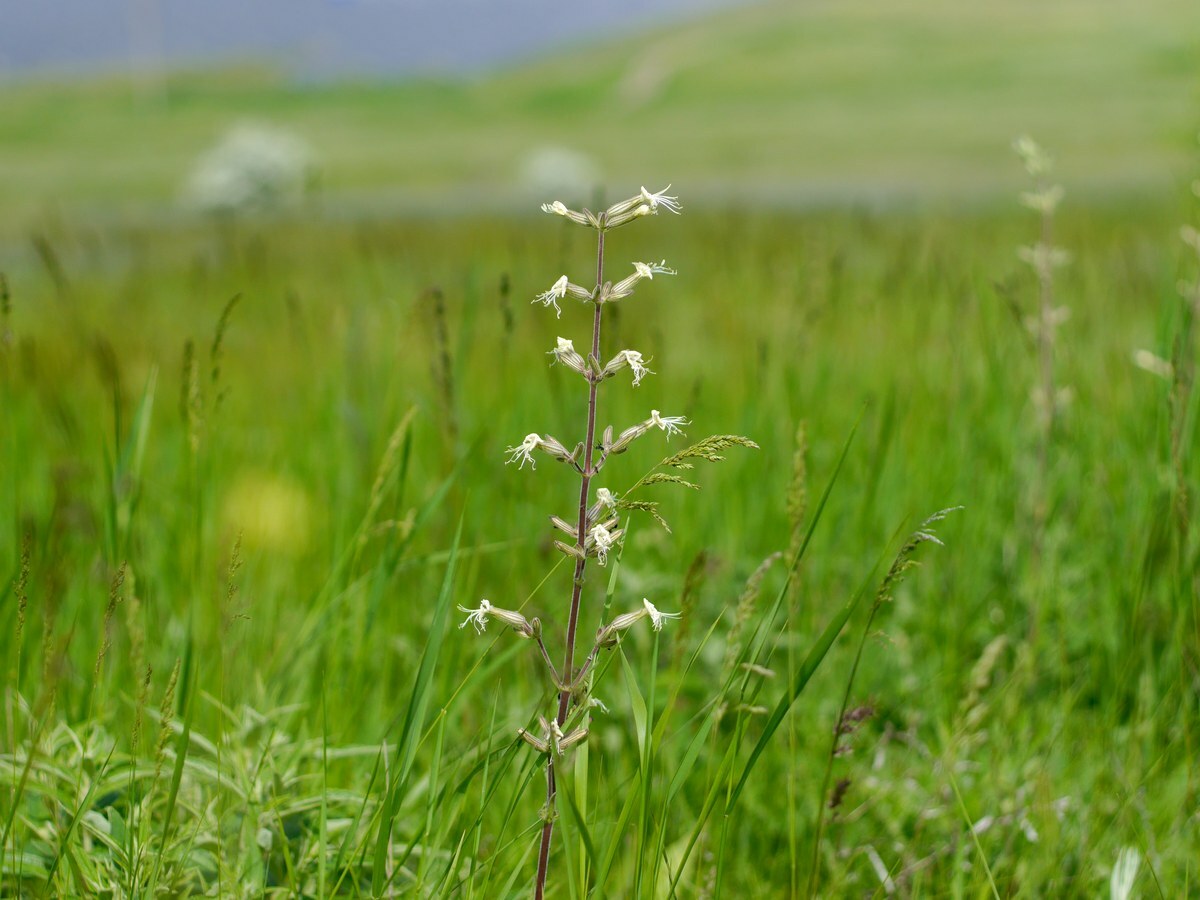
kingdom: Plantae
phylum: Tracheophyta
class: Magnoliopsida
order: Caryophyllales
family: Caryophyllaceae
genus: Silene
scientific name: Silene viscosa
